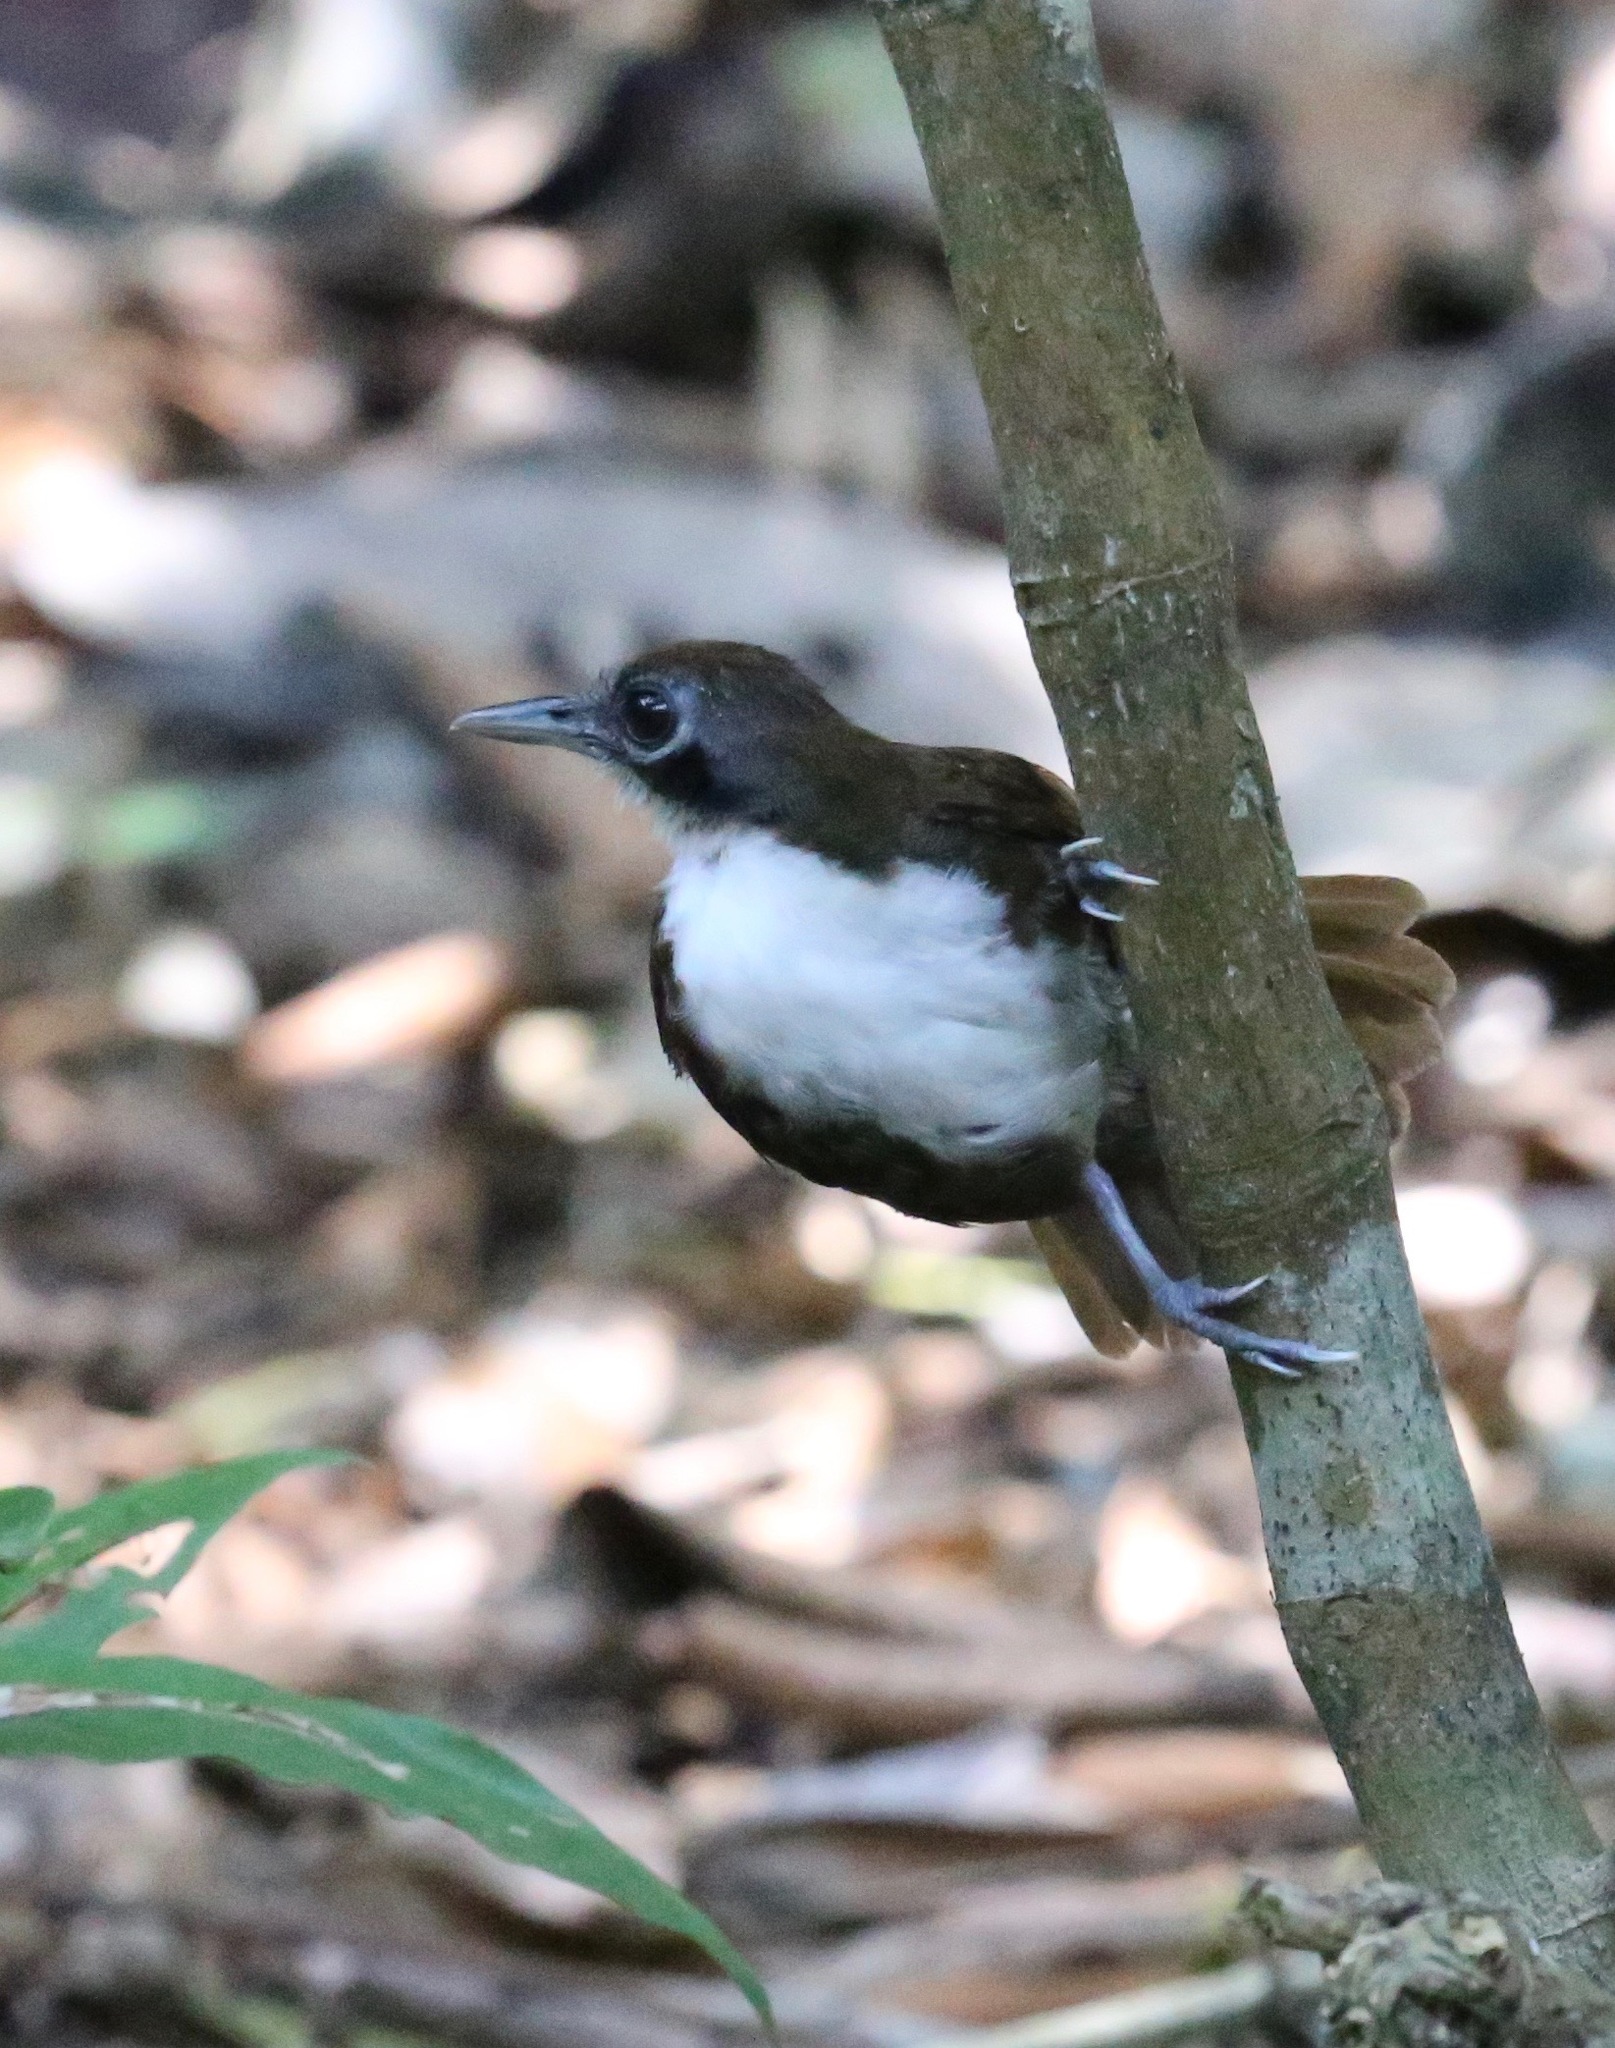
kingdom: Animalia
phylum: Chordata
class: Aves
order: Passeriformes
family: Thamnophilidae
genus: Gymnopithys
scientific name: Gymnopithys leucaspis
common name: White-cheeked antbird
